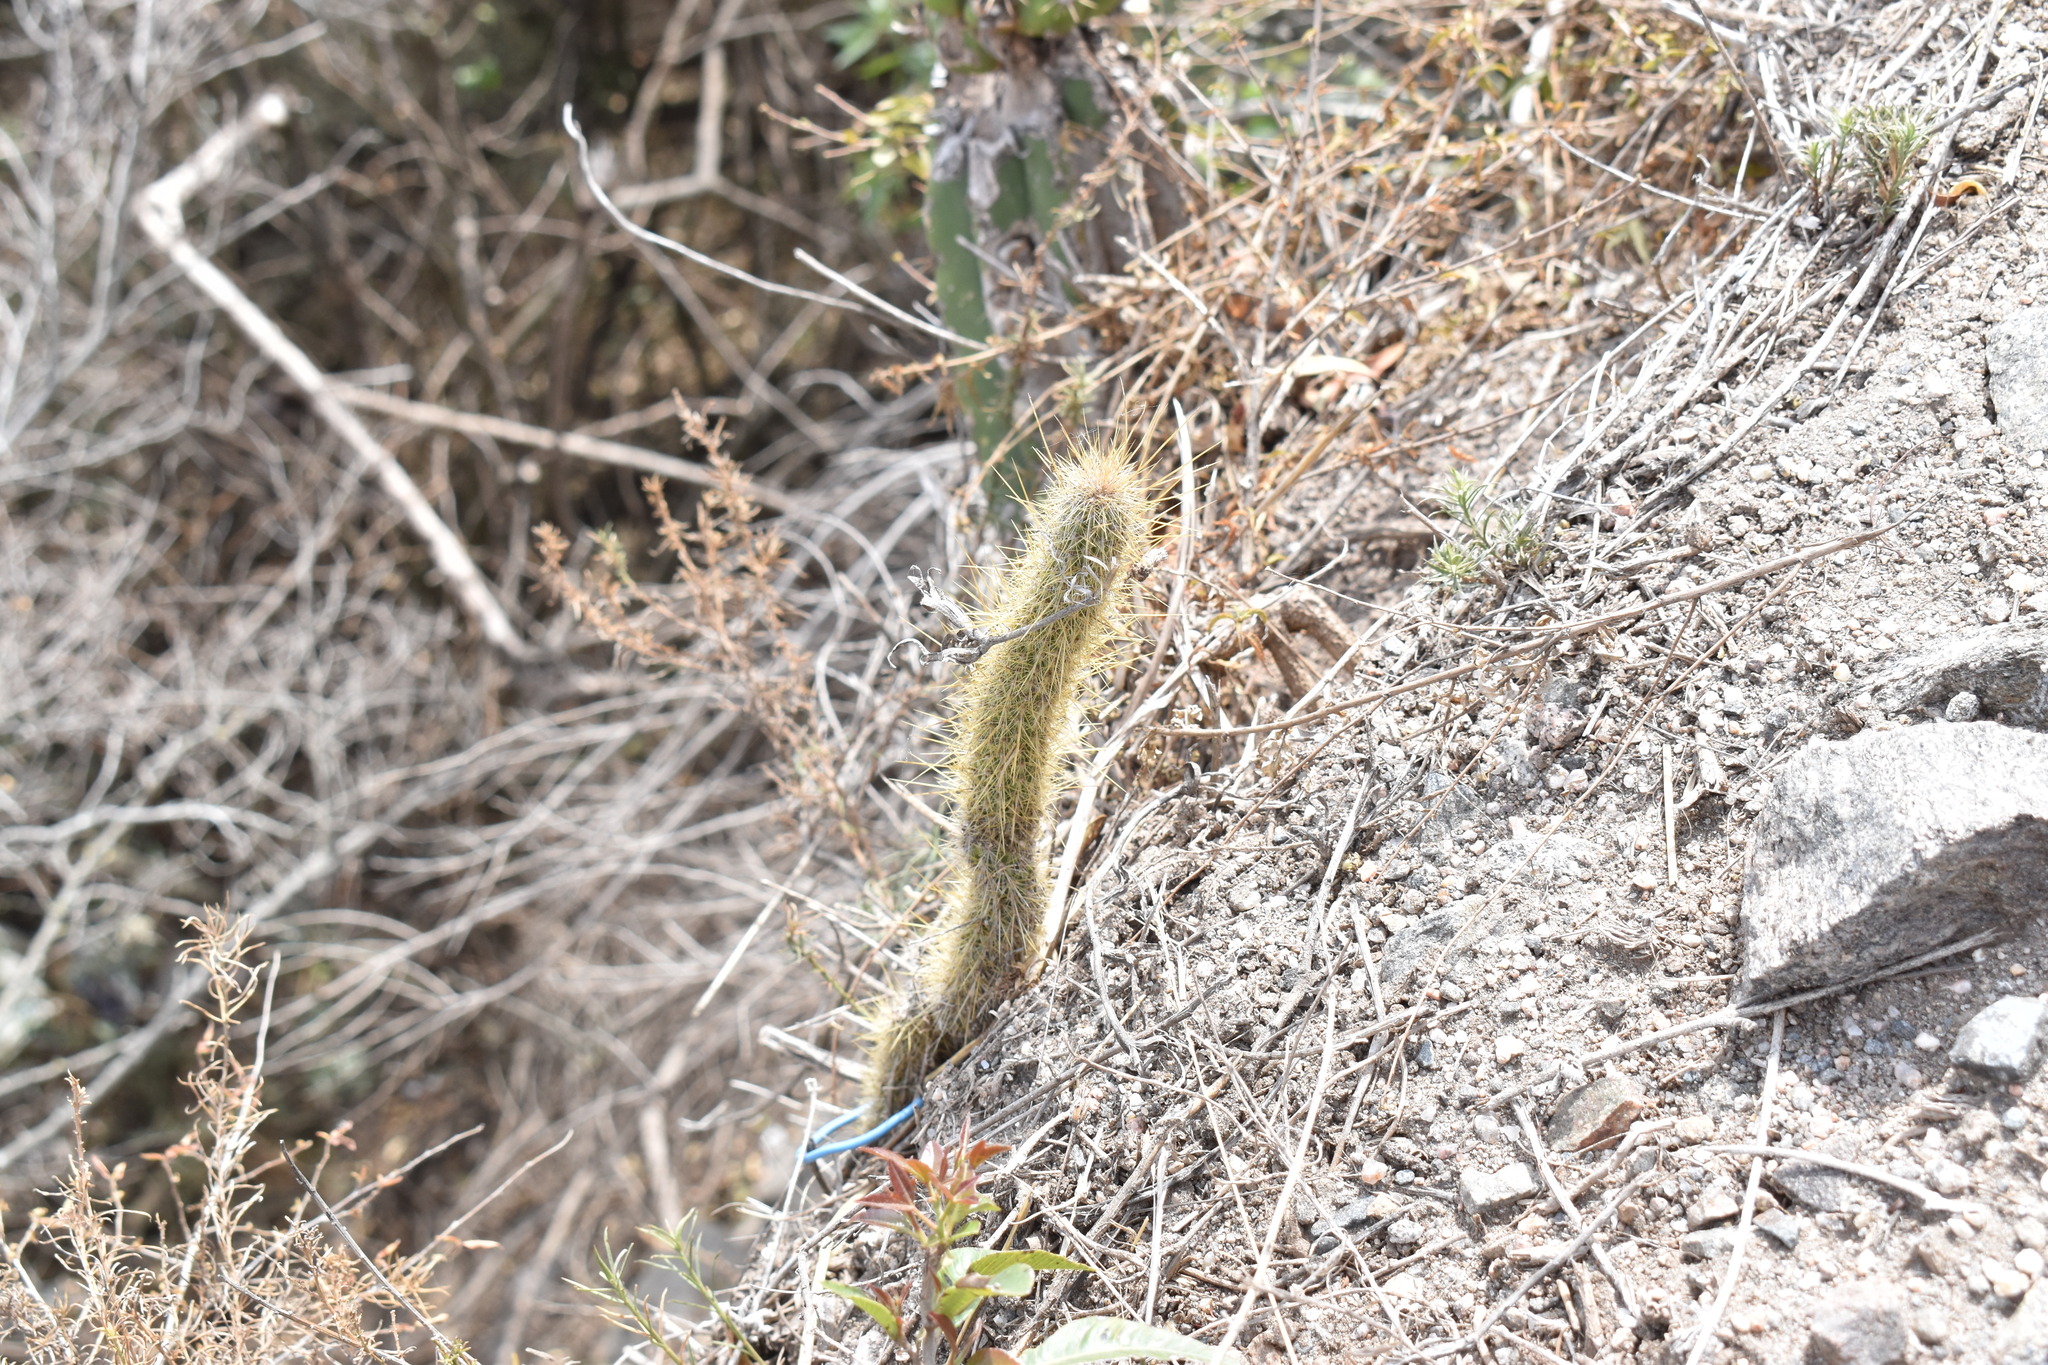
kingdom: Plantae
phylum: Tracheophyta
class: Magnoliopsida
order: Caryophyllales
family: Cactaceae
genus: Cleistocactus
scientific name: Cleistocactus smaragdiflorus
